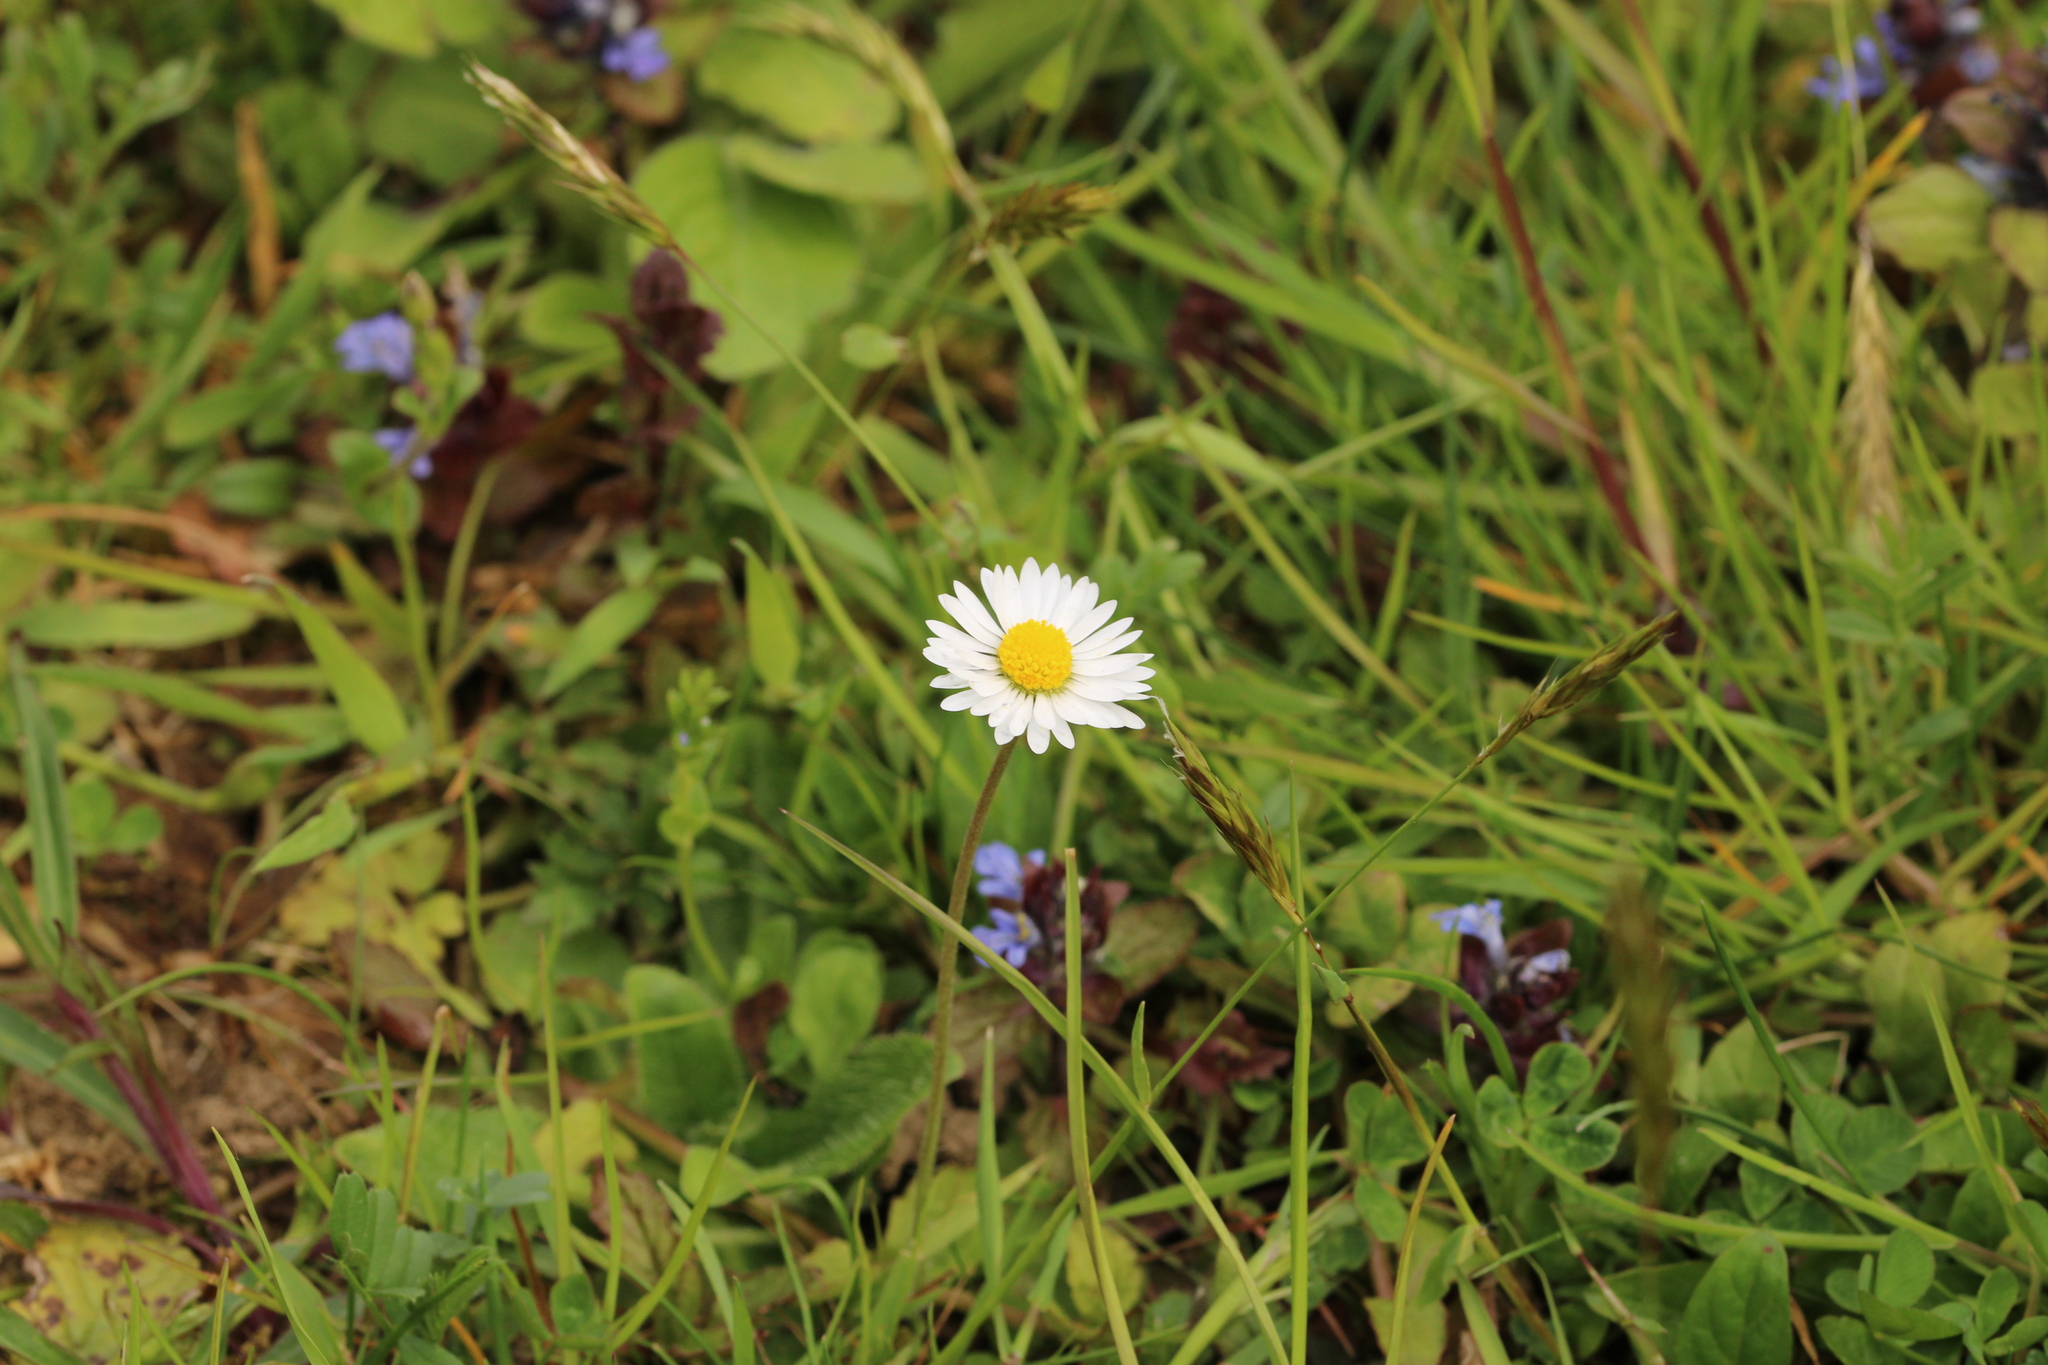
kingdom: Plantae
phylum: Tracheophyta
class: Magnoliopsida
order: Asterales
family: Asteraceae
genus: Bellis
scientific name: Bellis perennis
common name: Lawndaisy
